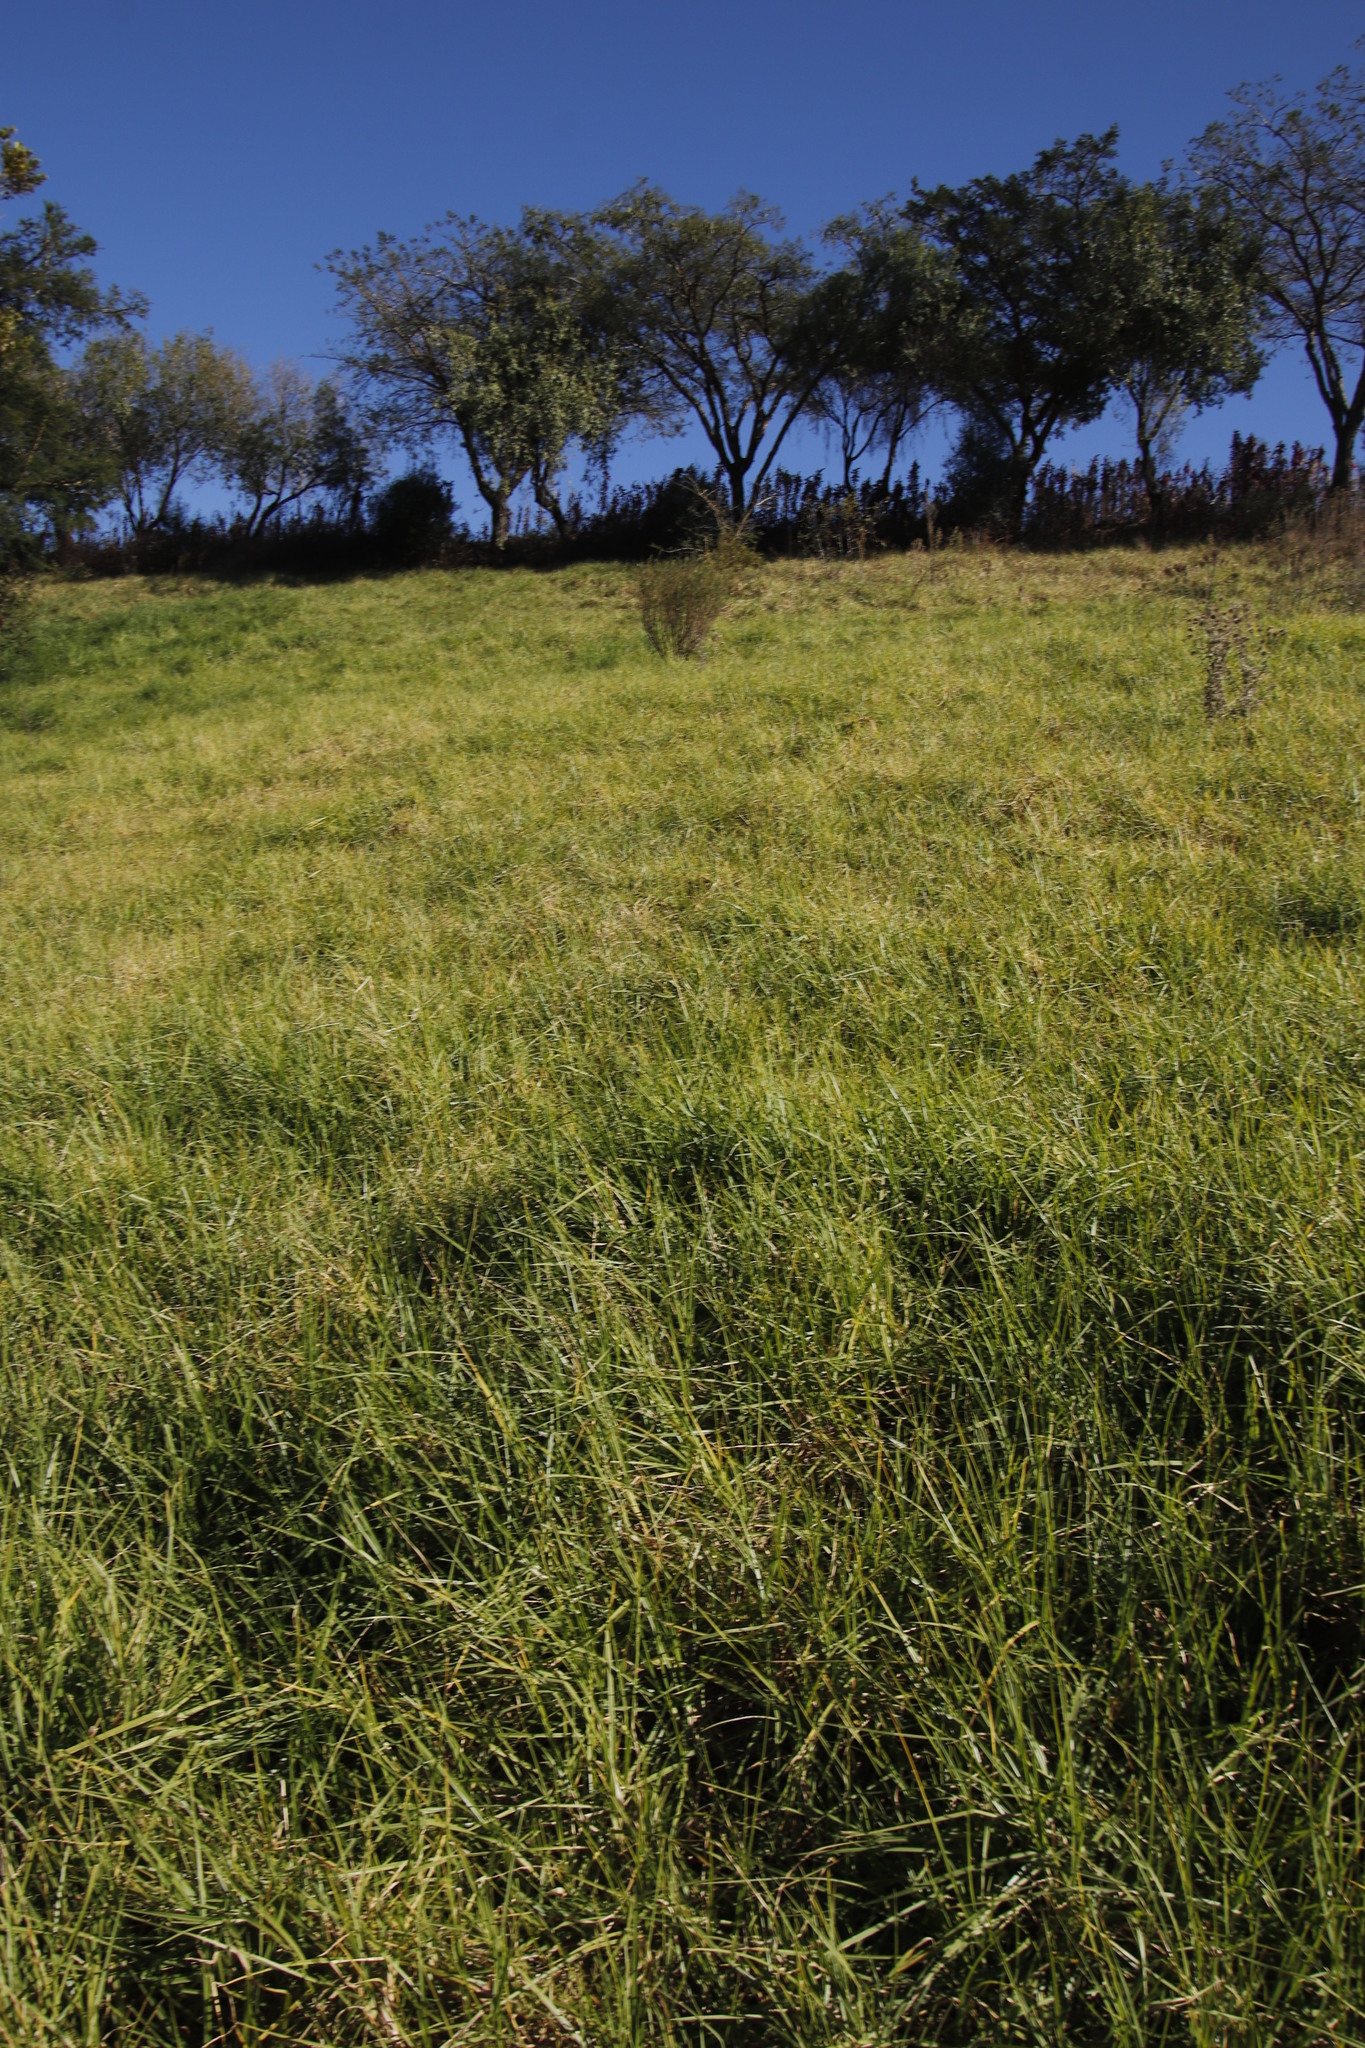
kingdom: Plantae
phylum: Tracheophyta
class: Liliopsida
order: Poales
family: Poaceae
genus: Cenchrus
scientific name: Cenchrus clandestinus
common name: Kikuyugrass
